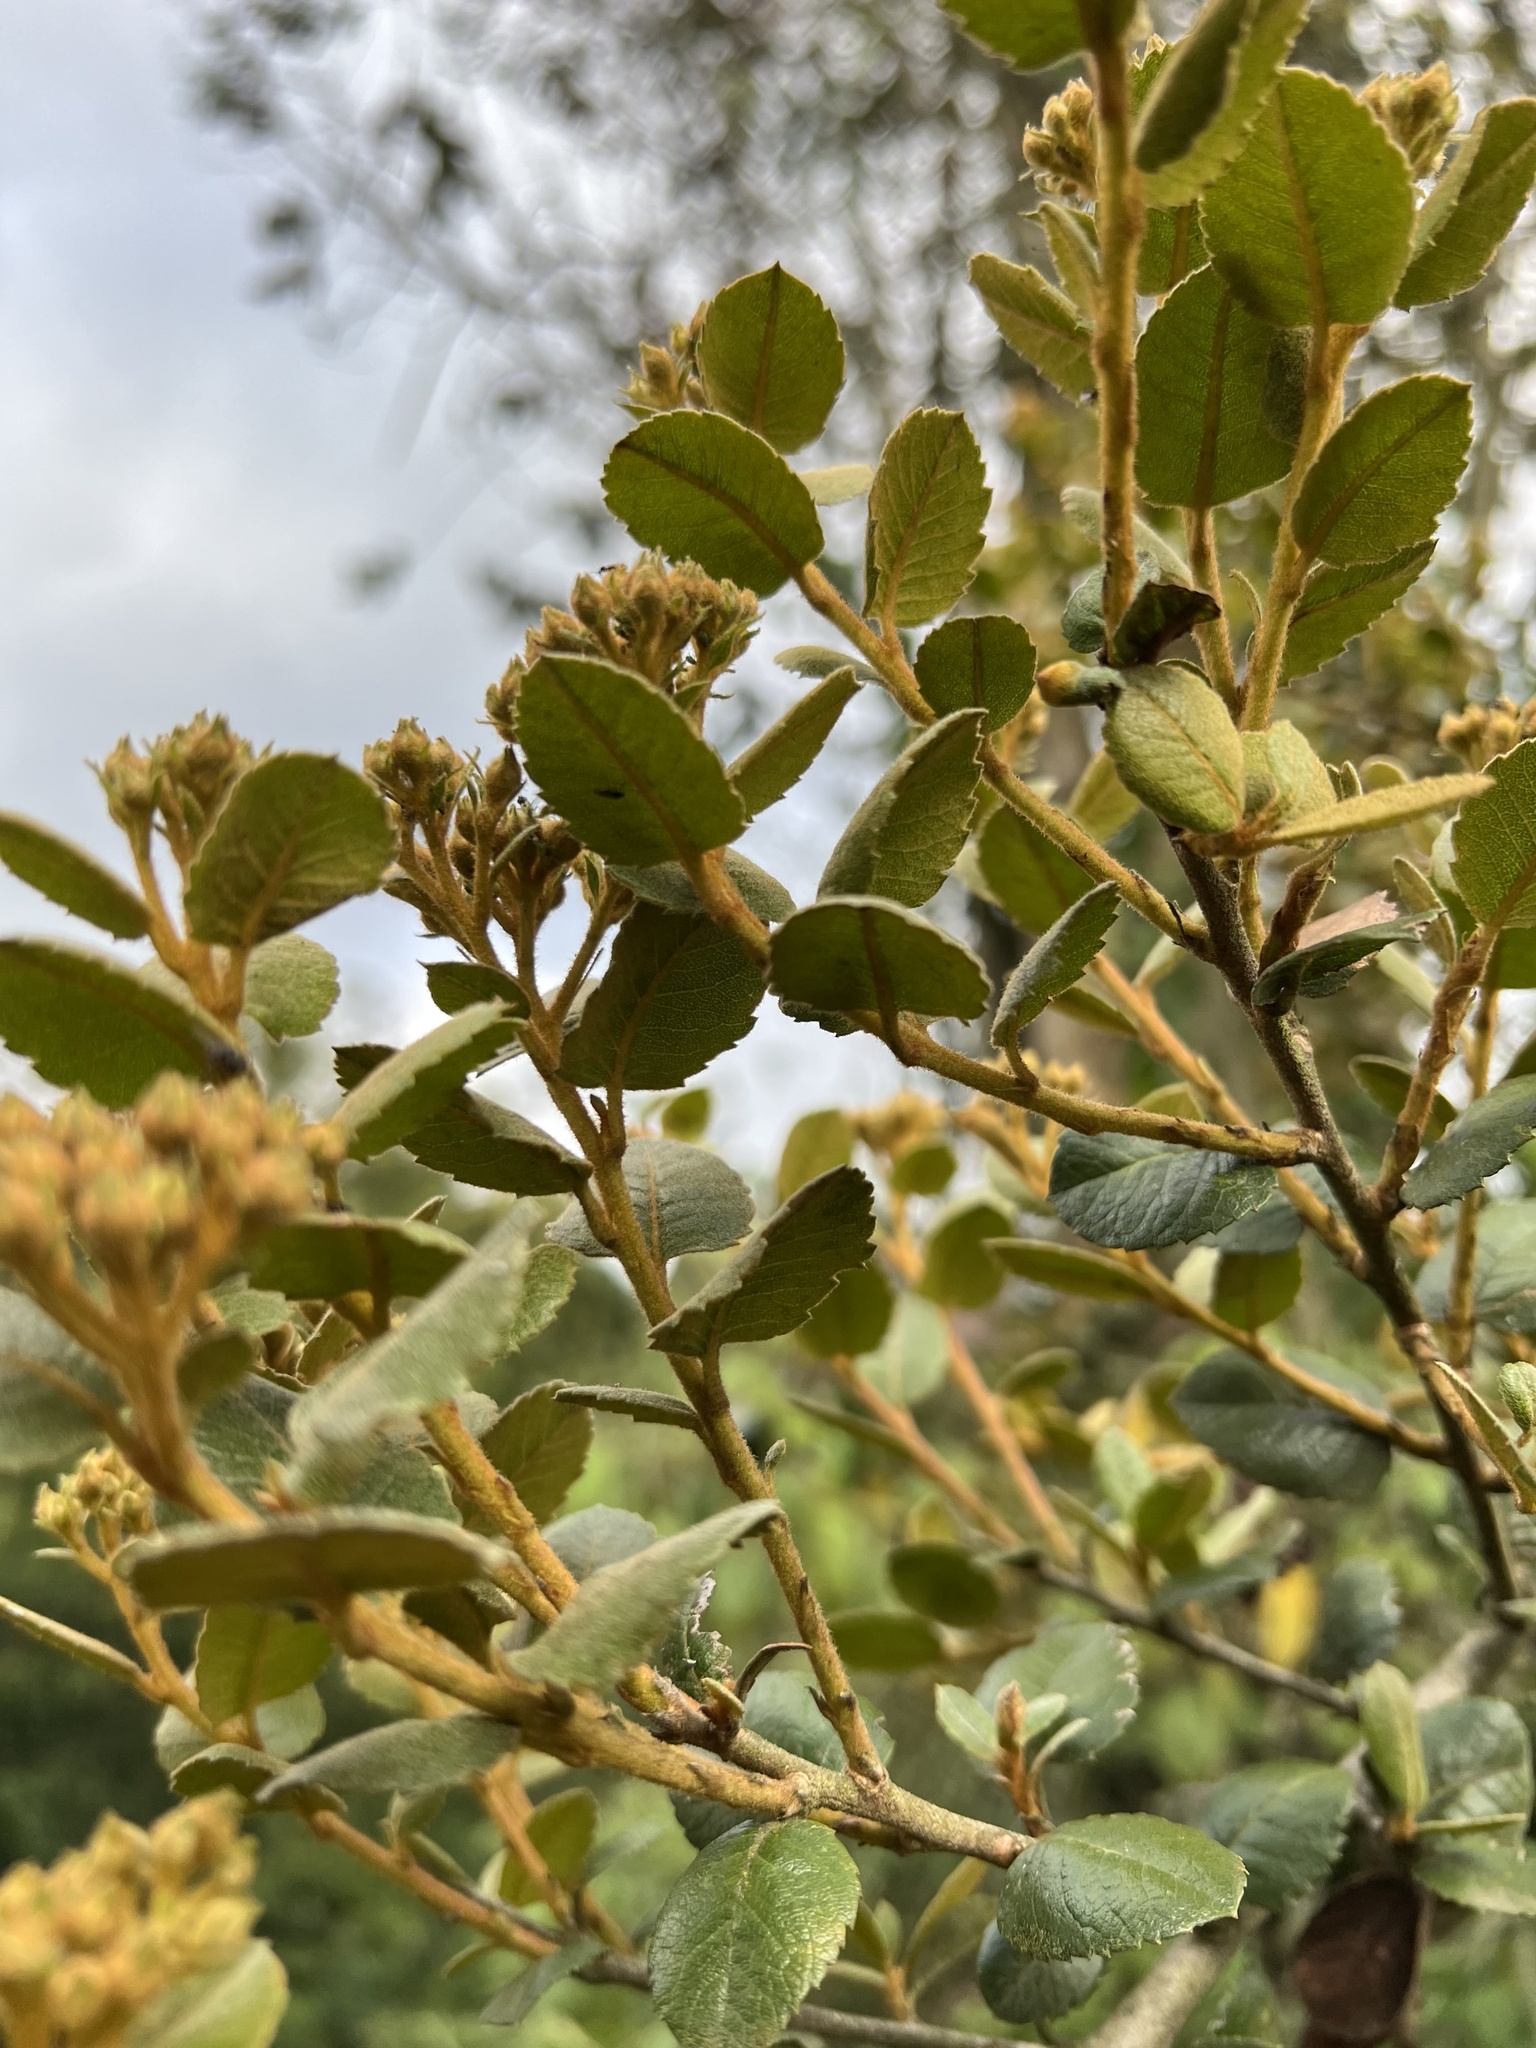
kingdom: Plantae
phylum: Tracheophyta
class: Magnoliopsida
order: Rosales
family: Rosaceae
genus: Hesperomeles
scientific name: Hesperomeles goudotiana
